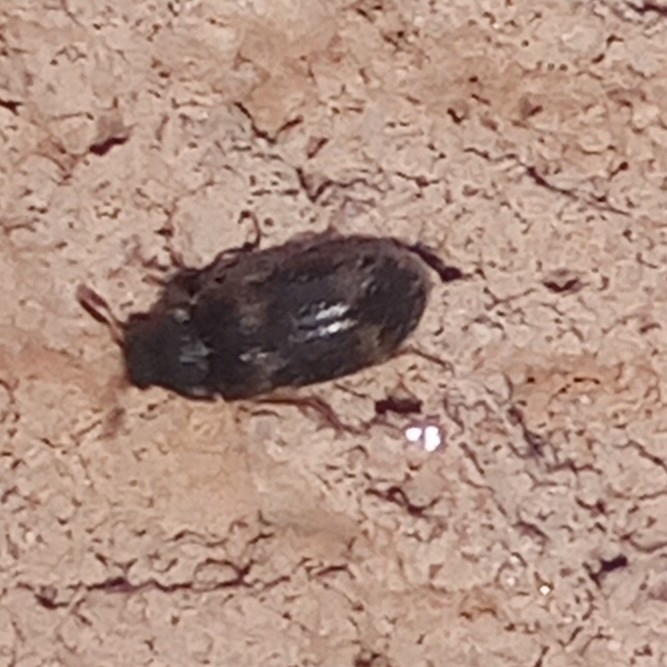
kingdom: Animalia
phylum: Arthropoda
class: Insecta
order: Coleoptera
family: Dermestidae
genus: Megatoma
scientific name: Megatoma tianschanica
